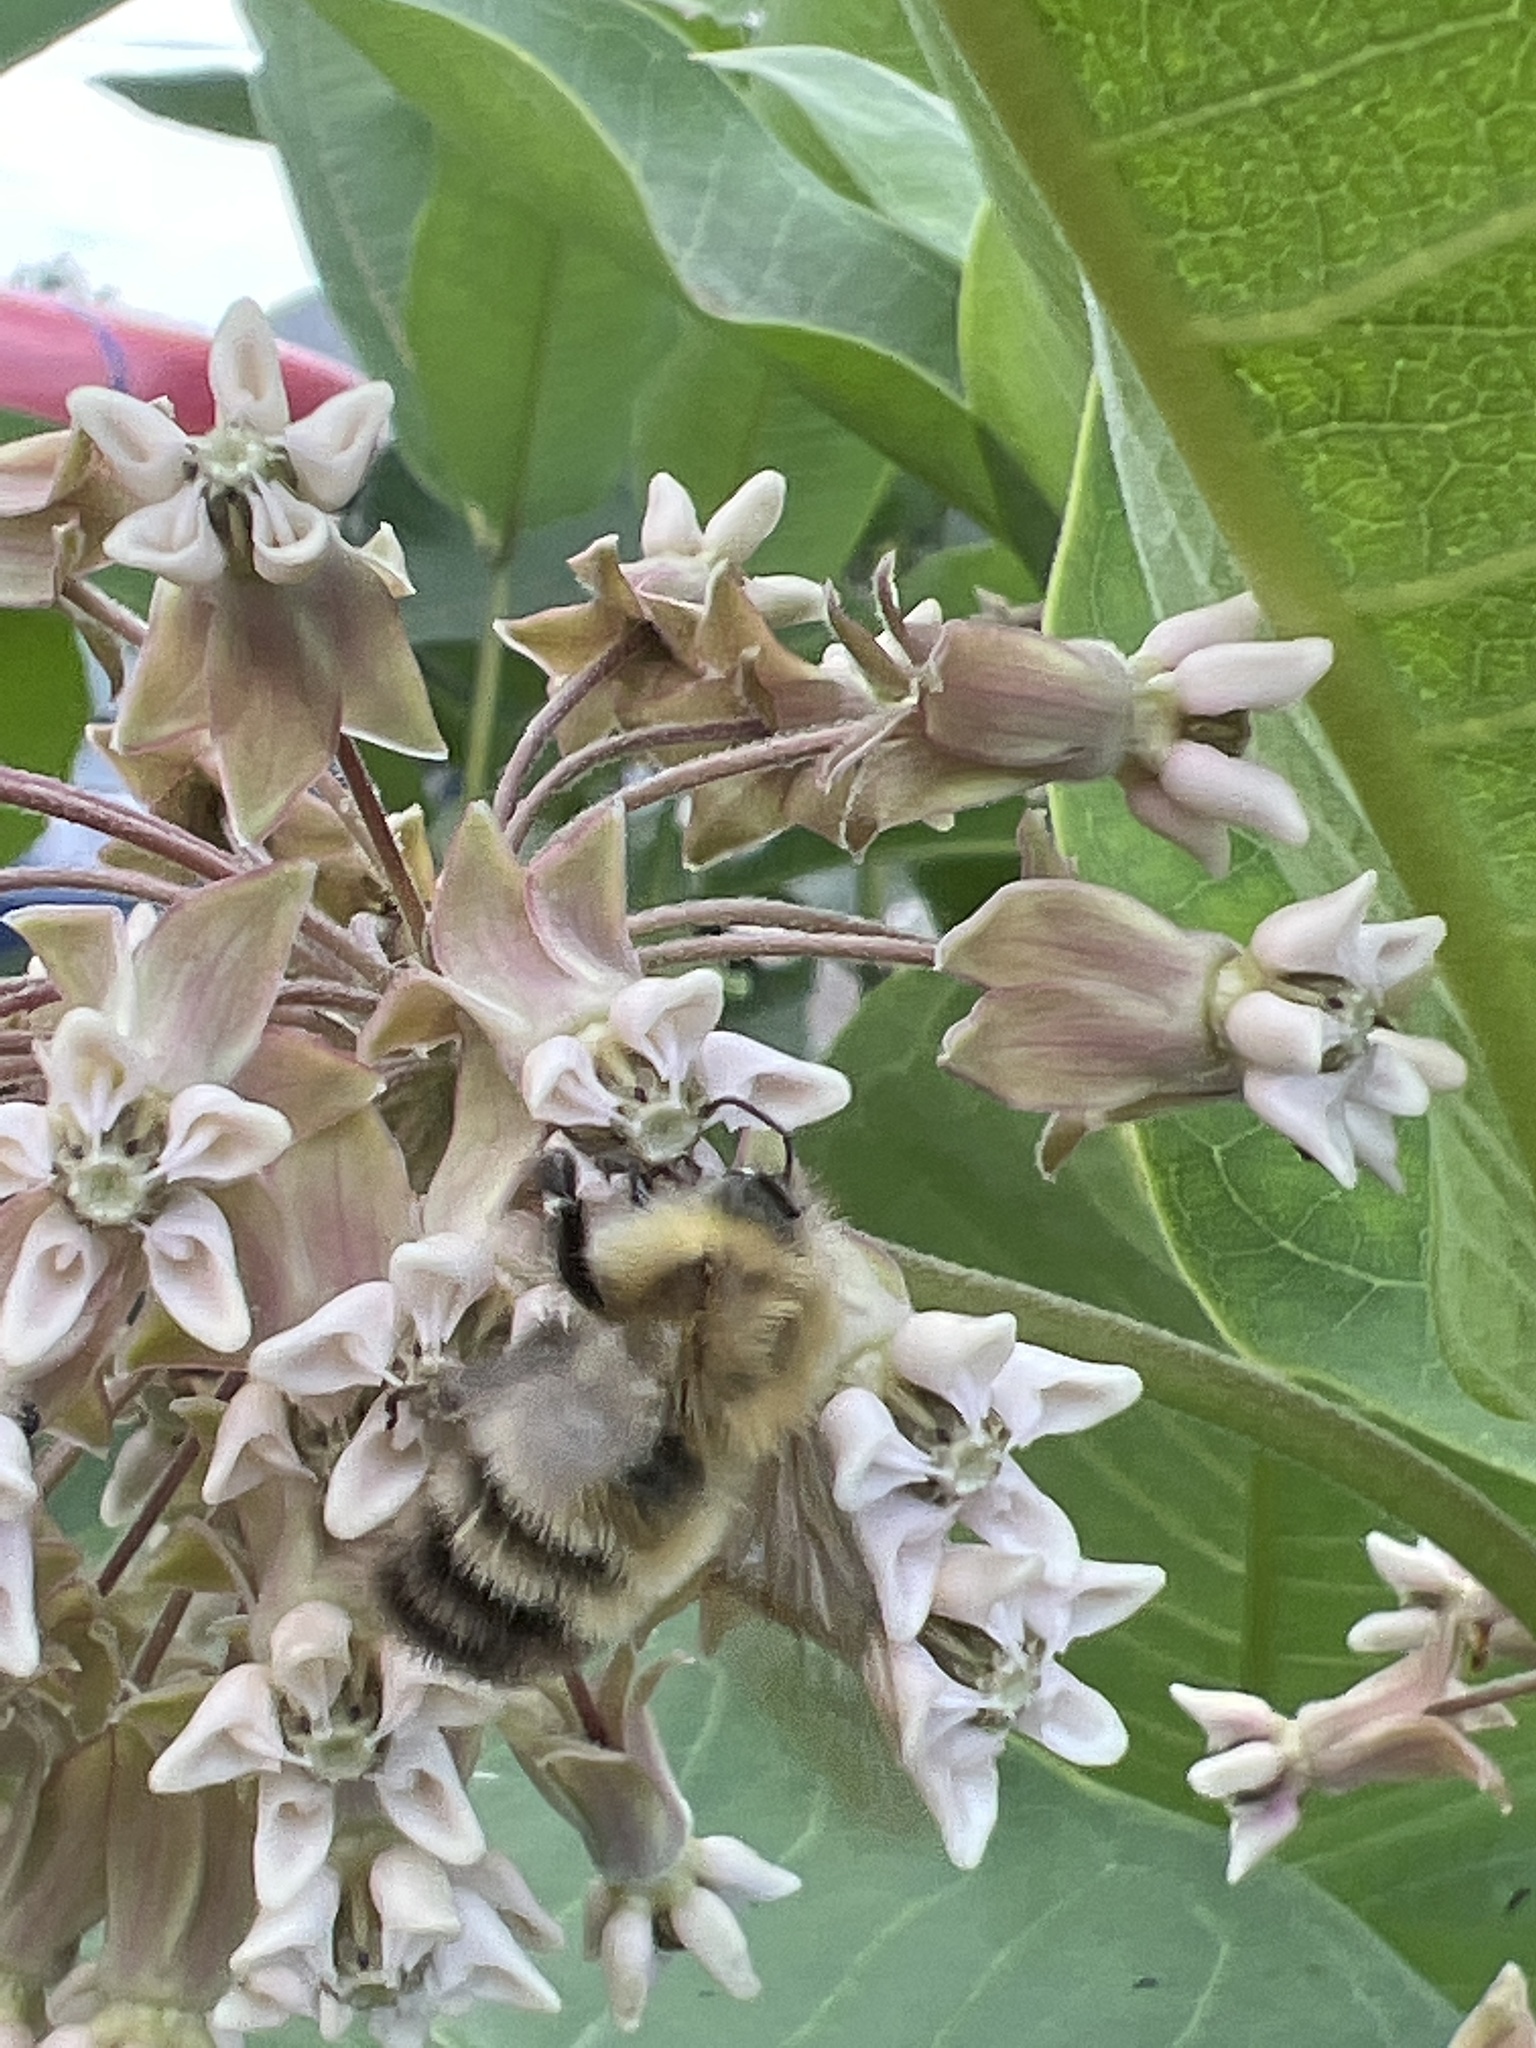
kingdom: Animalia
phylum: Arthropoda
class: Insecta
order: Hymenoptera
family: Apidae
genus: Bombus
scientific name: Bombus perplexus
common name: Confusing bumble bee
